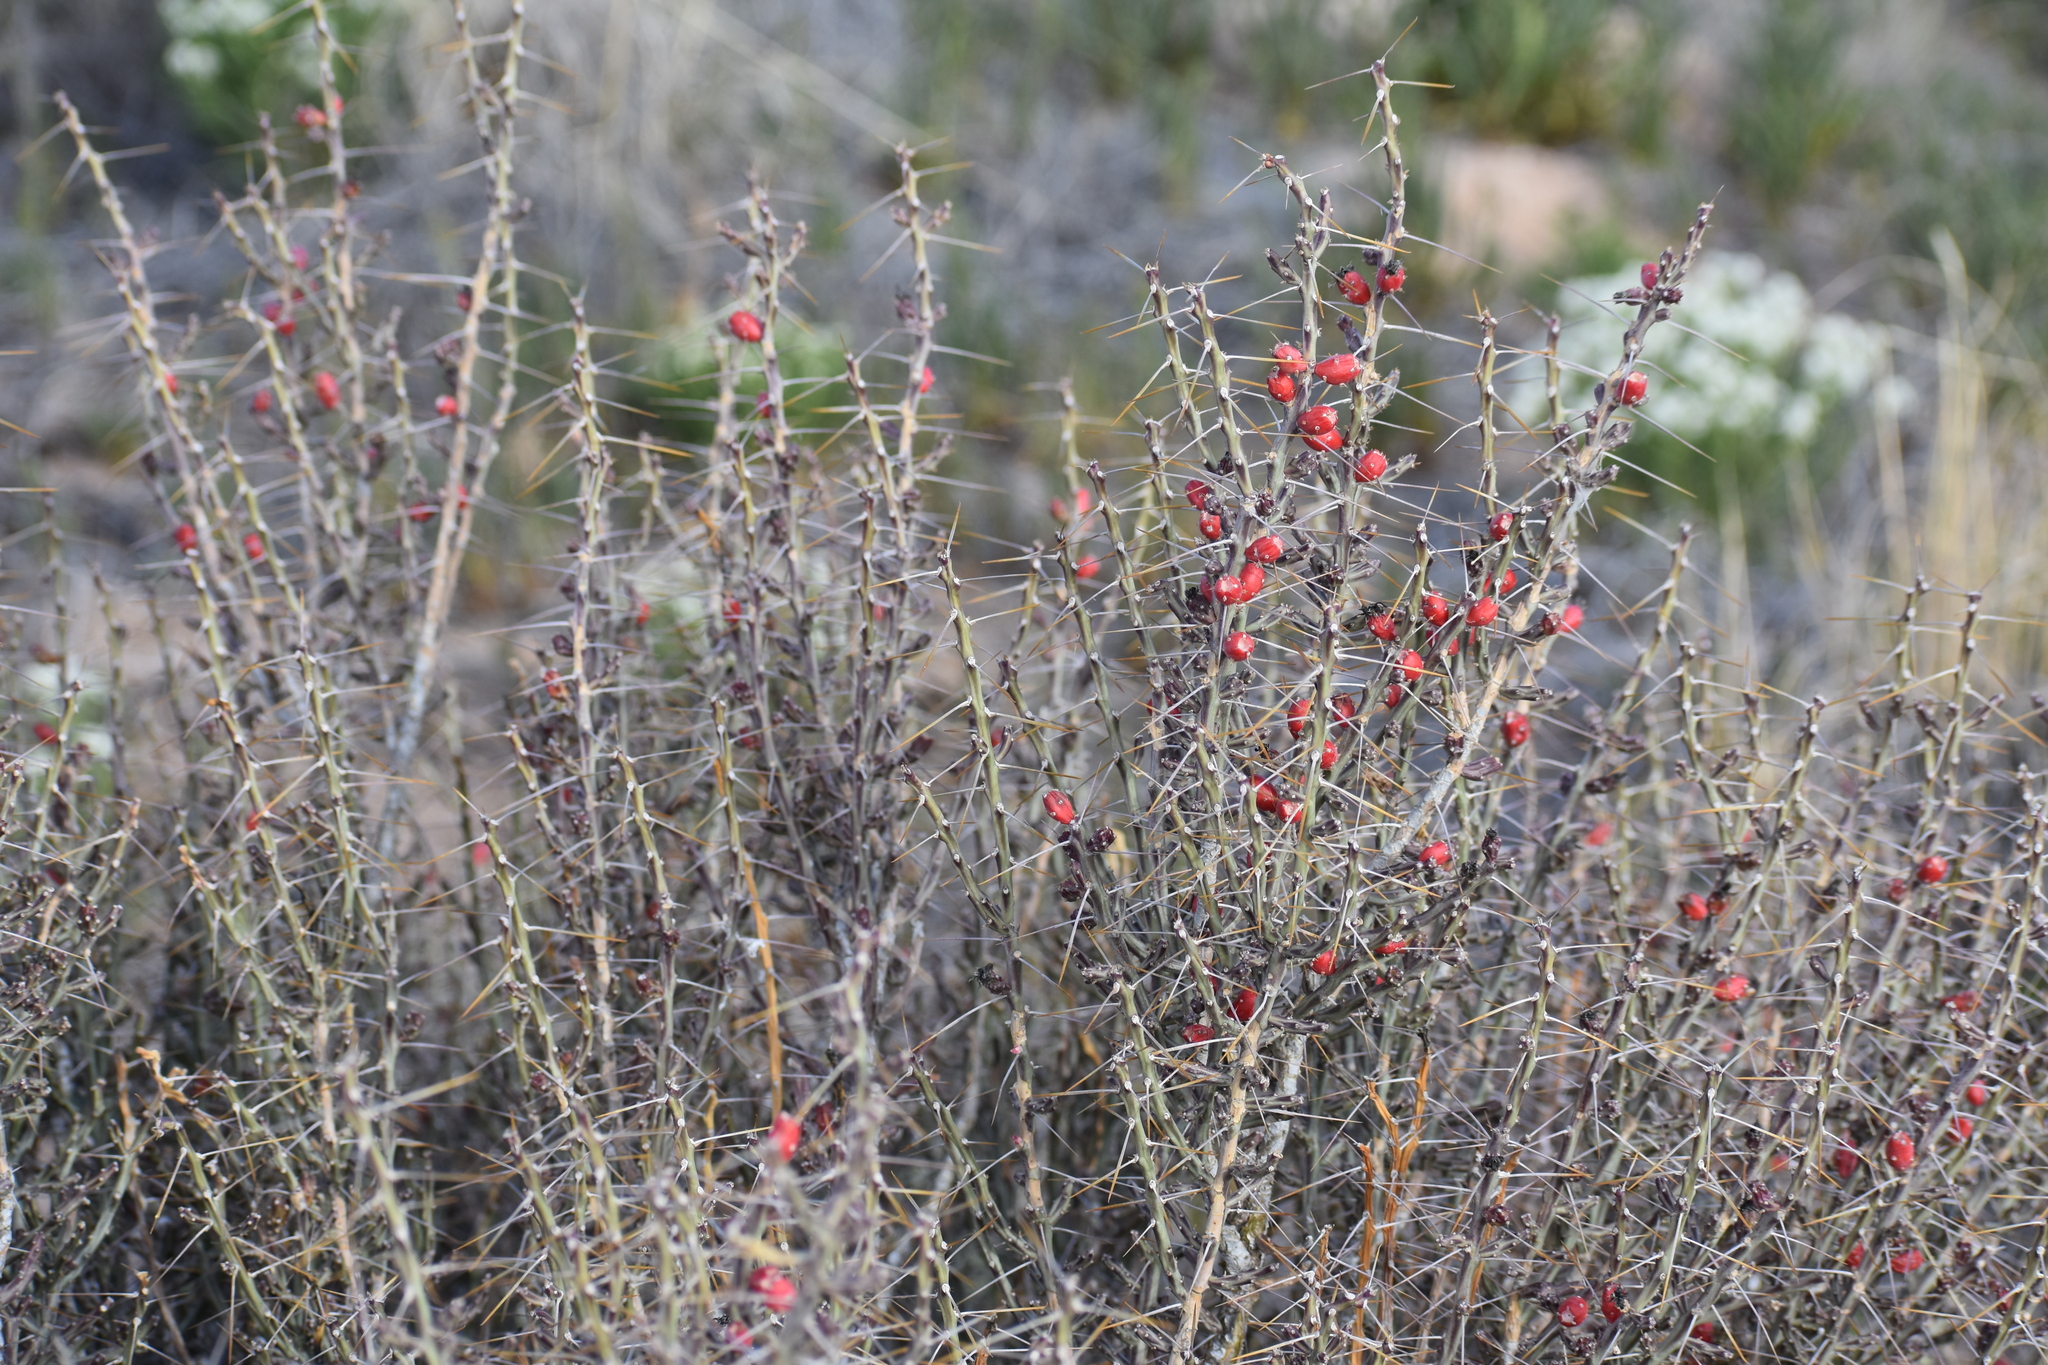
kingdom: Plantae
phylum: Tracheophyta
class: Magnoliopsida
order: Caryophyllales
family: Cactaceae
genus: Cylindropuntia
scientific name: Cylindropuntia leptocaulis
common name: Christmas cactus
